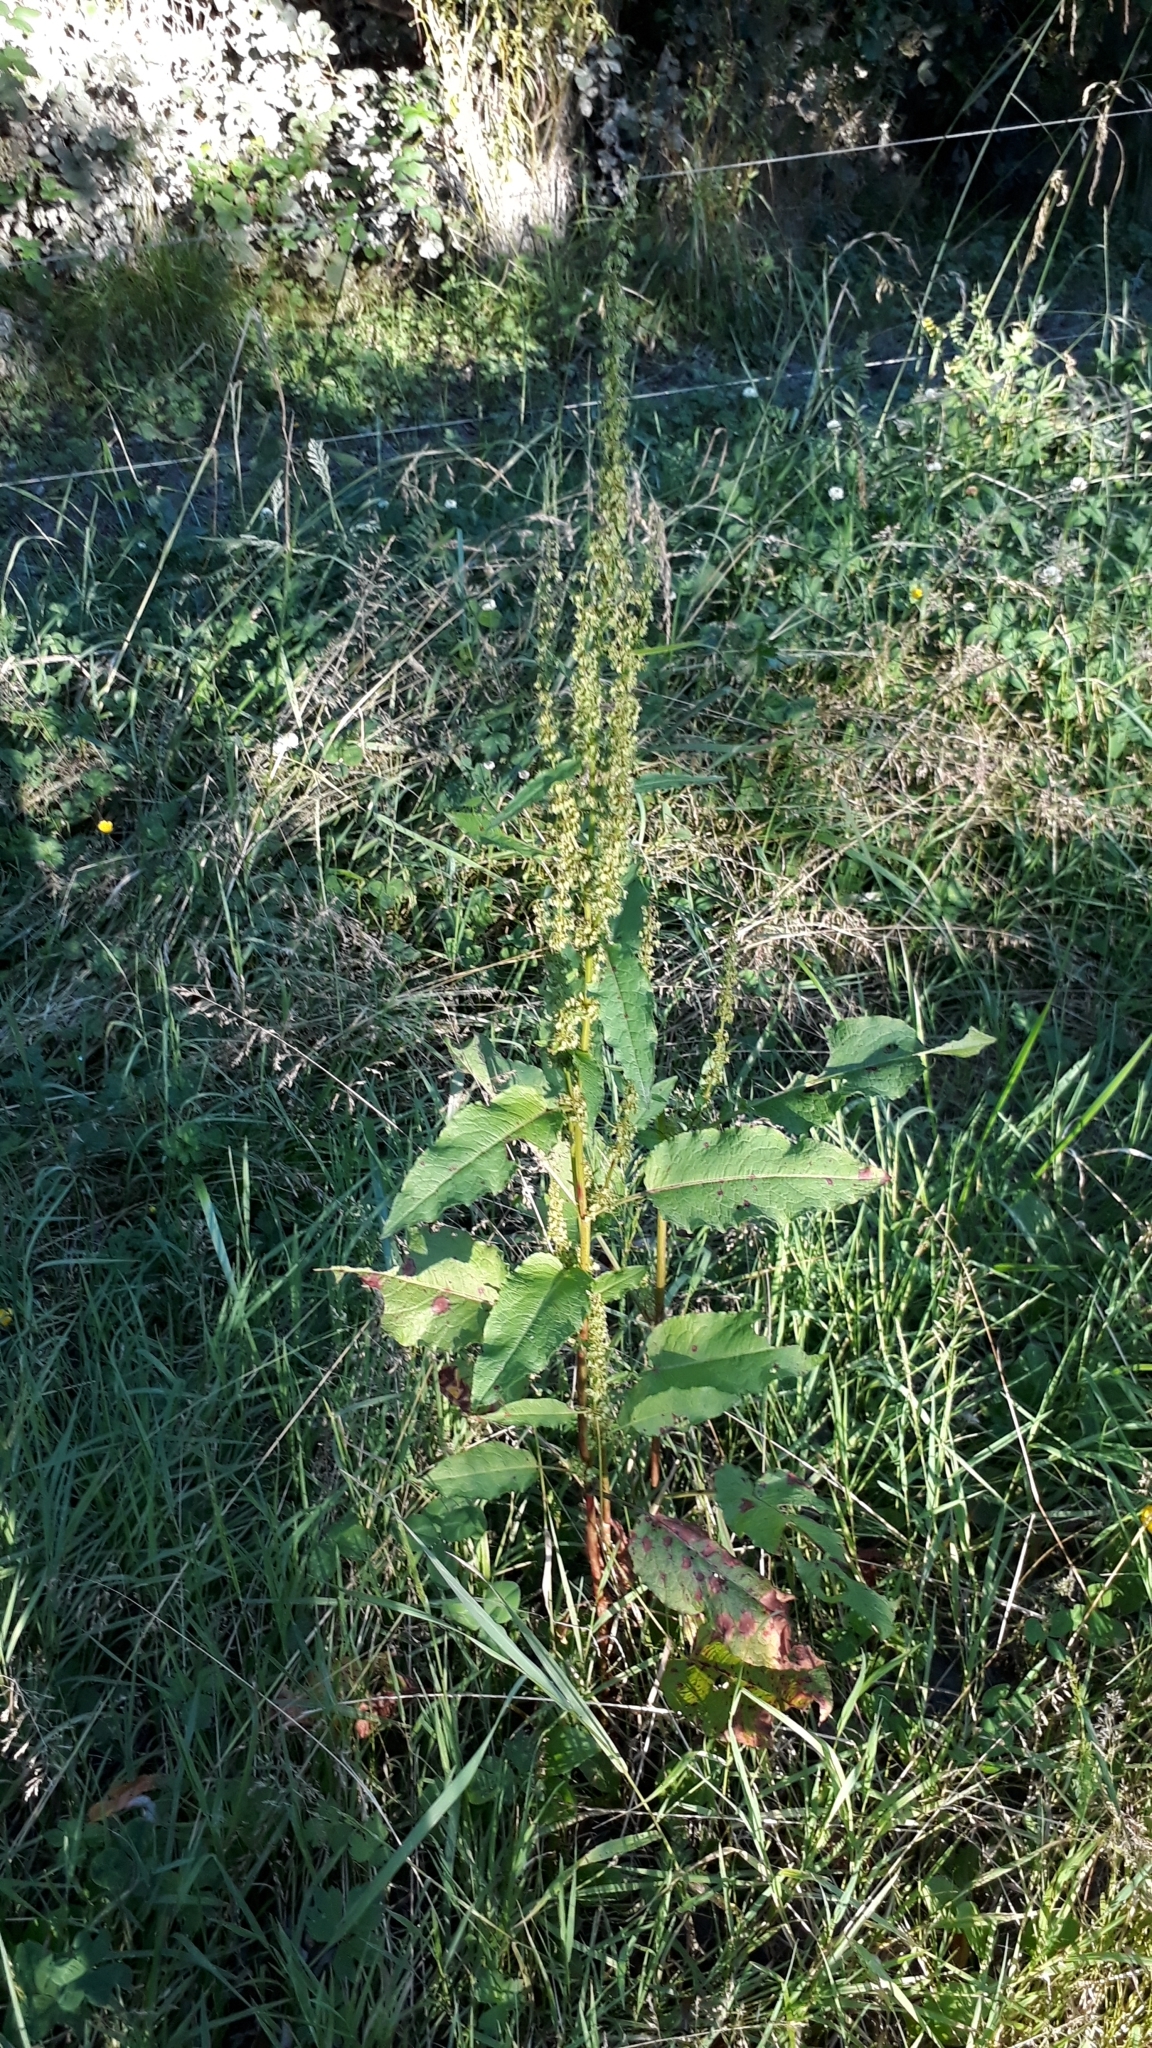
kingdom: Plantae
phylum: Tracheophyta
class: Magnoliopsida
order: Caryophyllales
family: Polygonaceae
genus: Rumex
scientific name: Rumex crispus
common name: Curled dock
